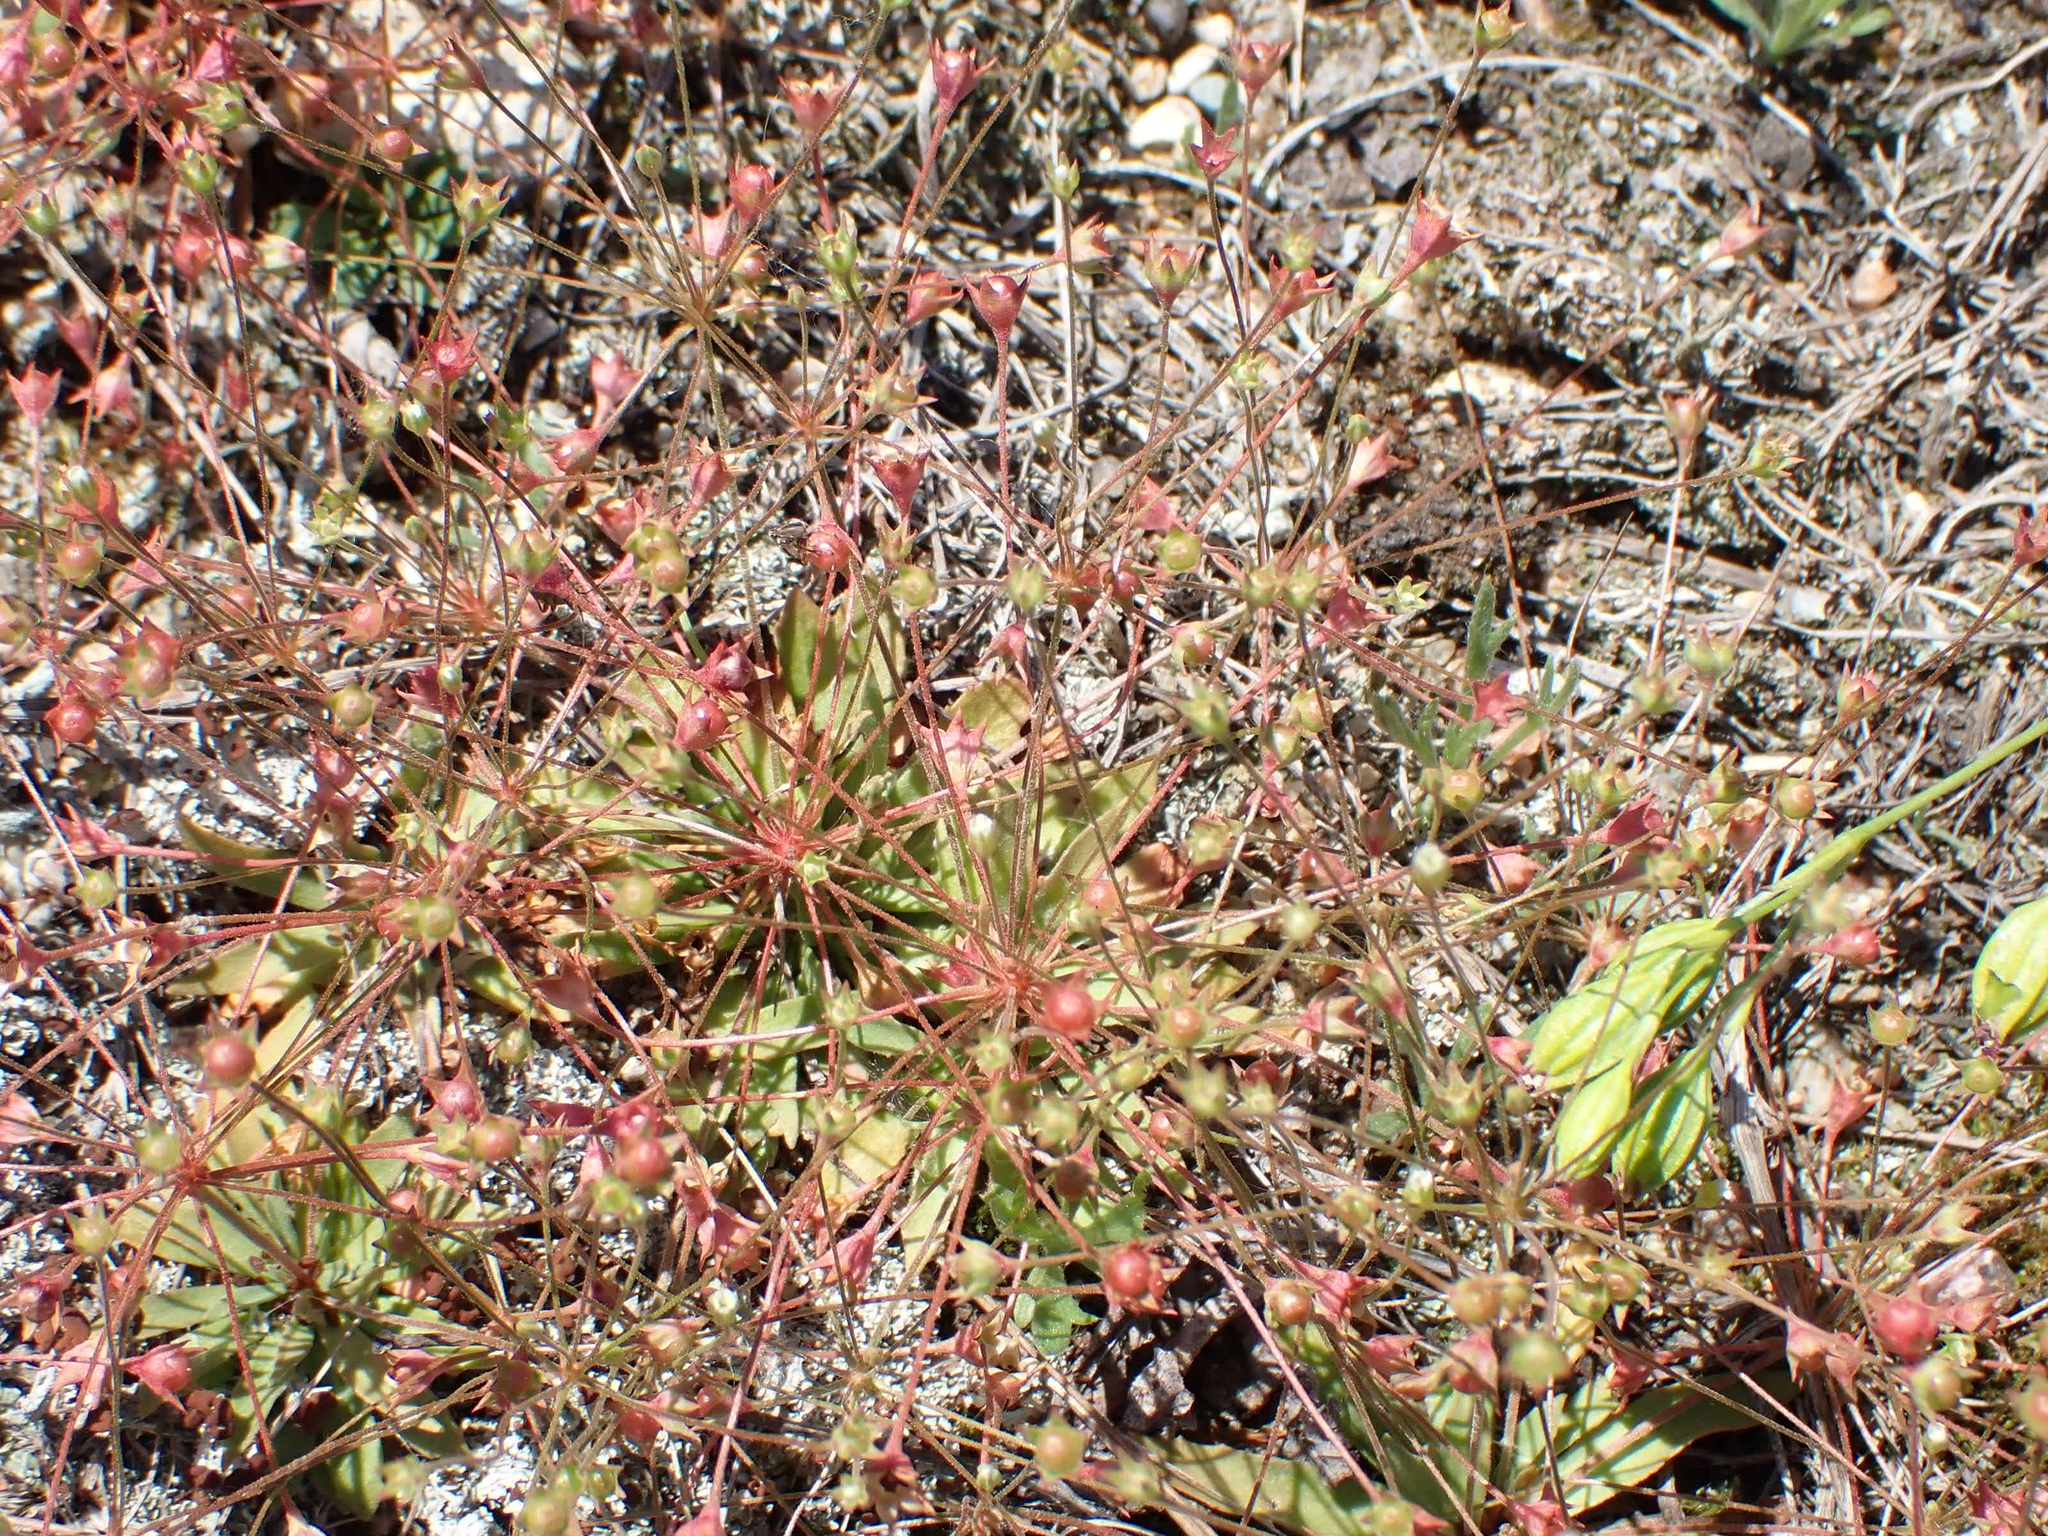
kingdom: Plantae
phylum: Tracheophyta
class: Magnoliopsida
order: Ericales
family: Primulaceae
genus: Androsace
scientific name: Androsace septentrionalis
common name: Hairy northern fairy-candelabra
